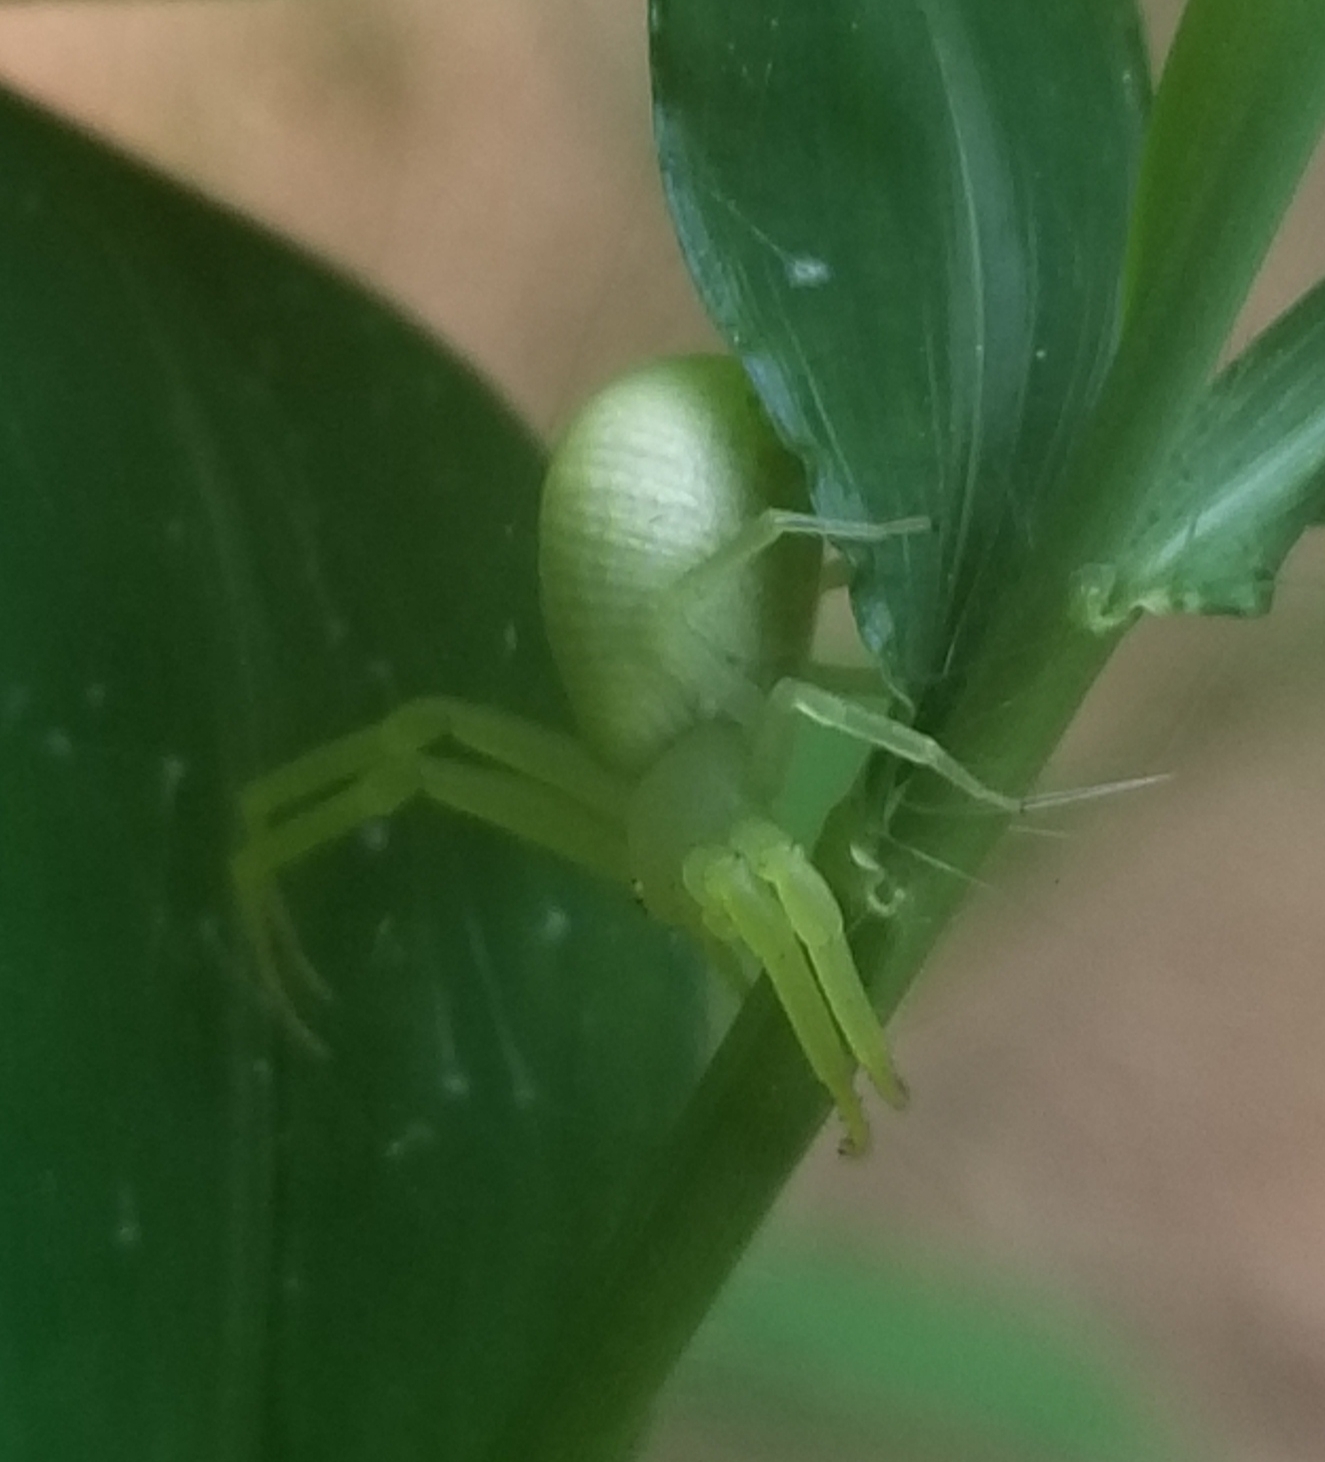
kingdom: Animalia
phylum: Arthropoda
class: Arachnida
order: Araneae
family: Thomisidae
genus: Misumessus
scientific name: Misumessus oblongus
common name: American green crab spider
